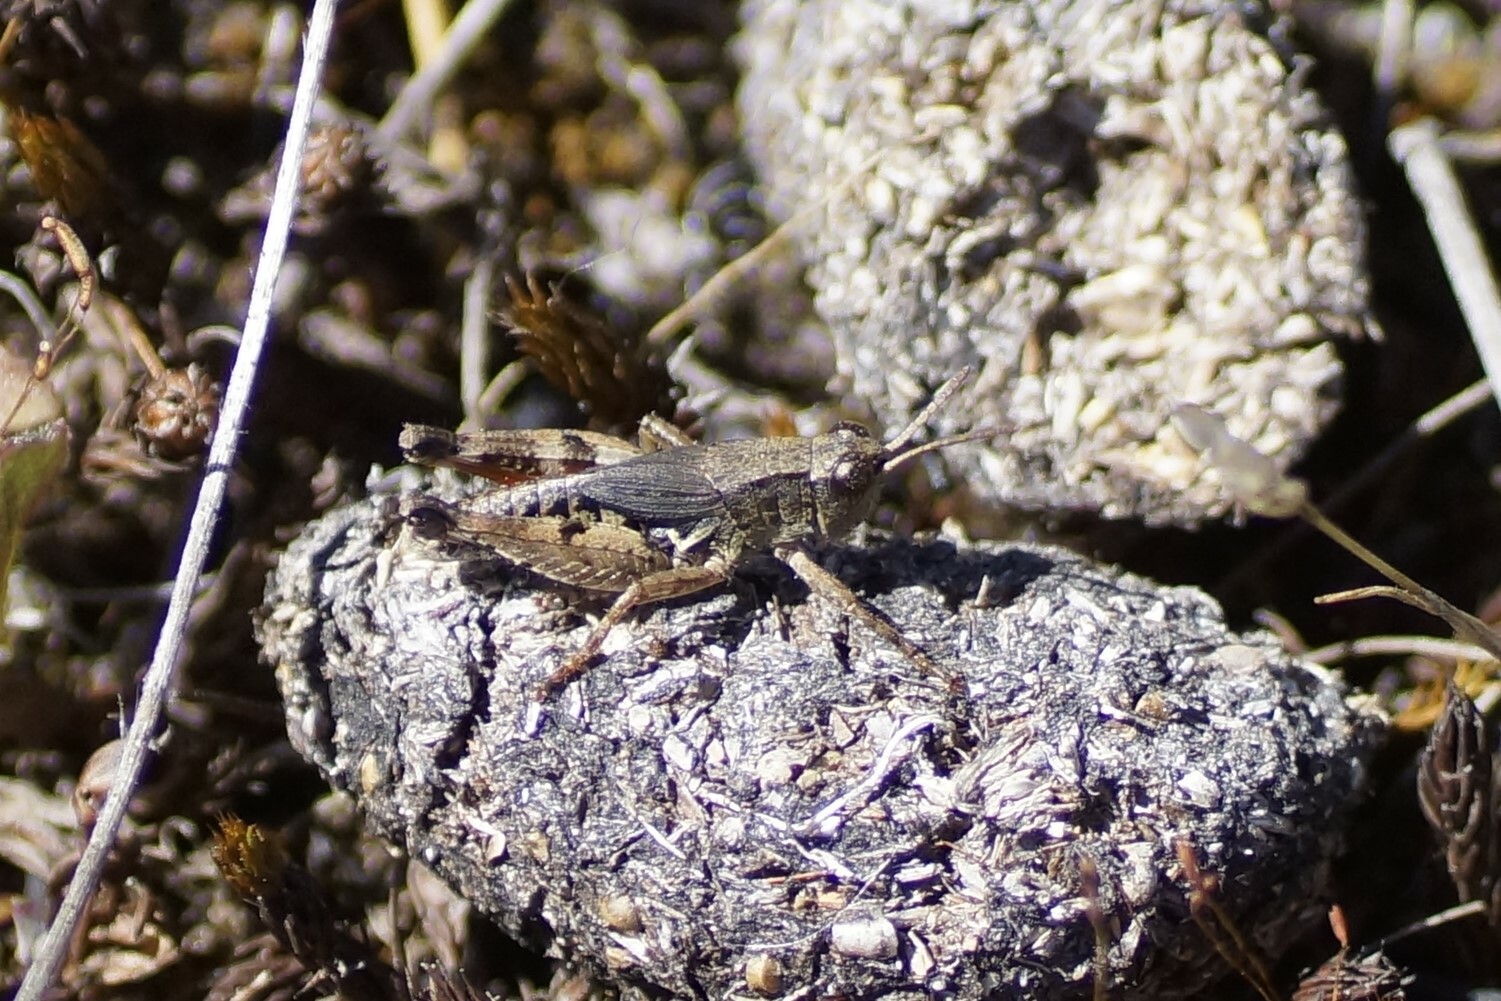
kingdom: Animalia
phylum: Arthropoda
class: Insecta
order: Orthoptera
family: Acrididae
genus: Phaulacridium
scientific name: Phaulacridium vittatum
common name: Wingless grasshopper
